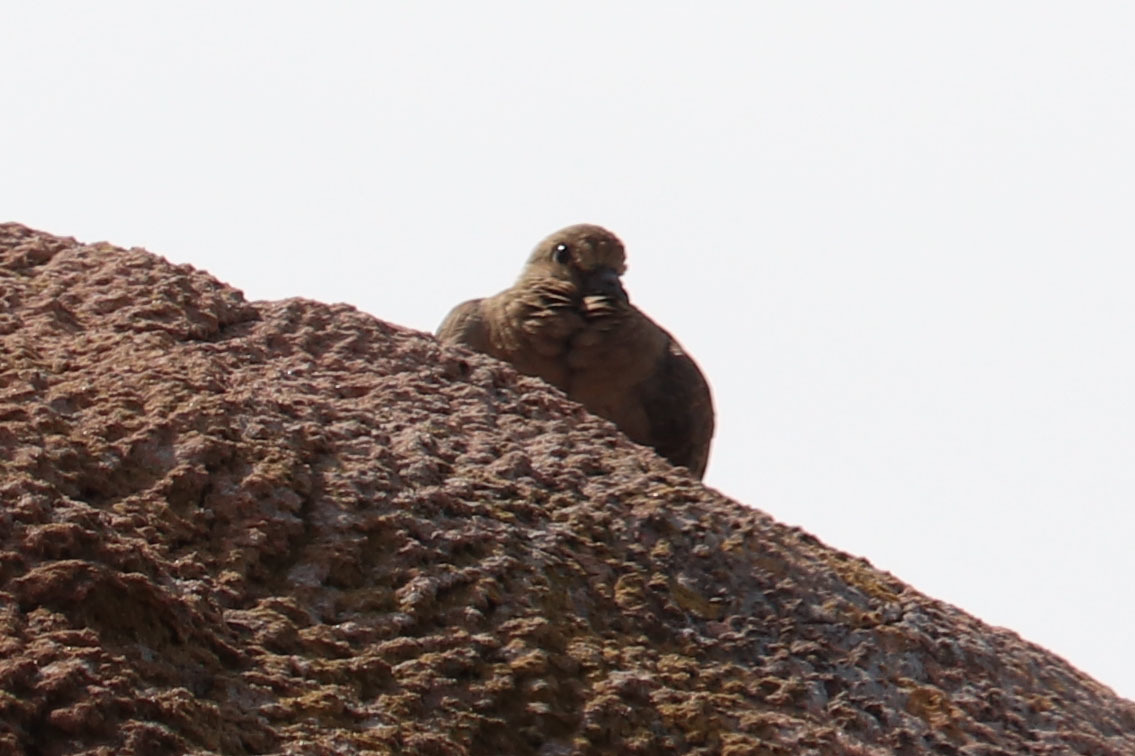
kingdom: Animalia
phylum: Chordata
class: Aves
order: Columbiformes
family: Columbidae
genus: Zenaida
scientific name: Zenaida macroura
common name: Mourning dove
